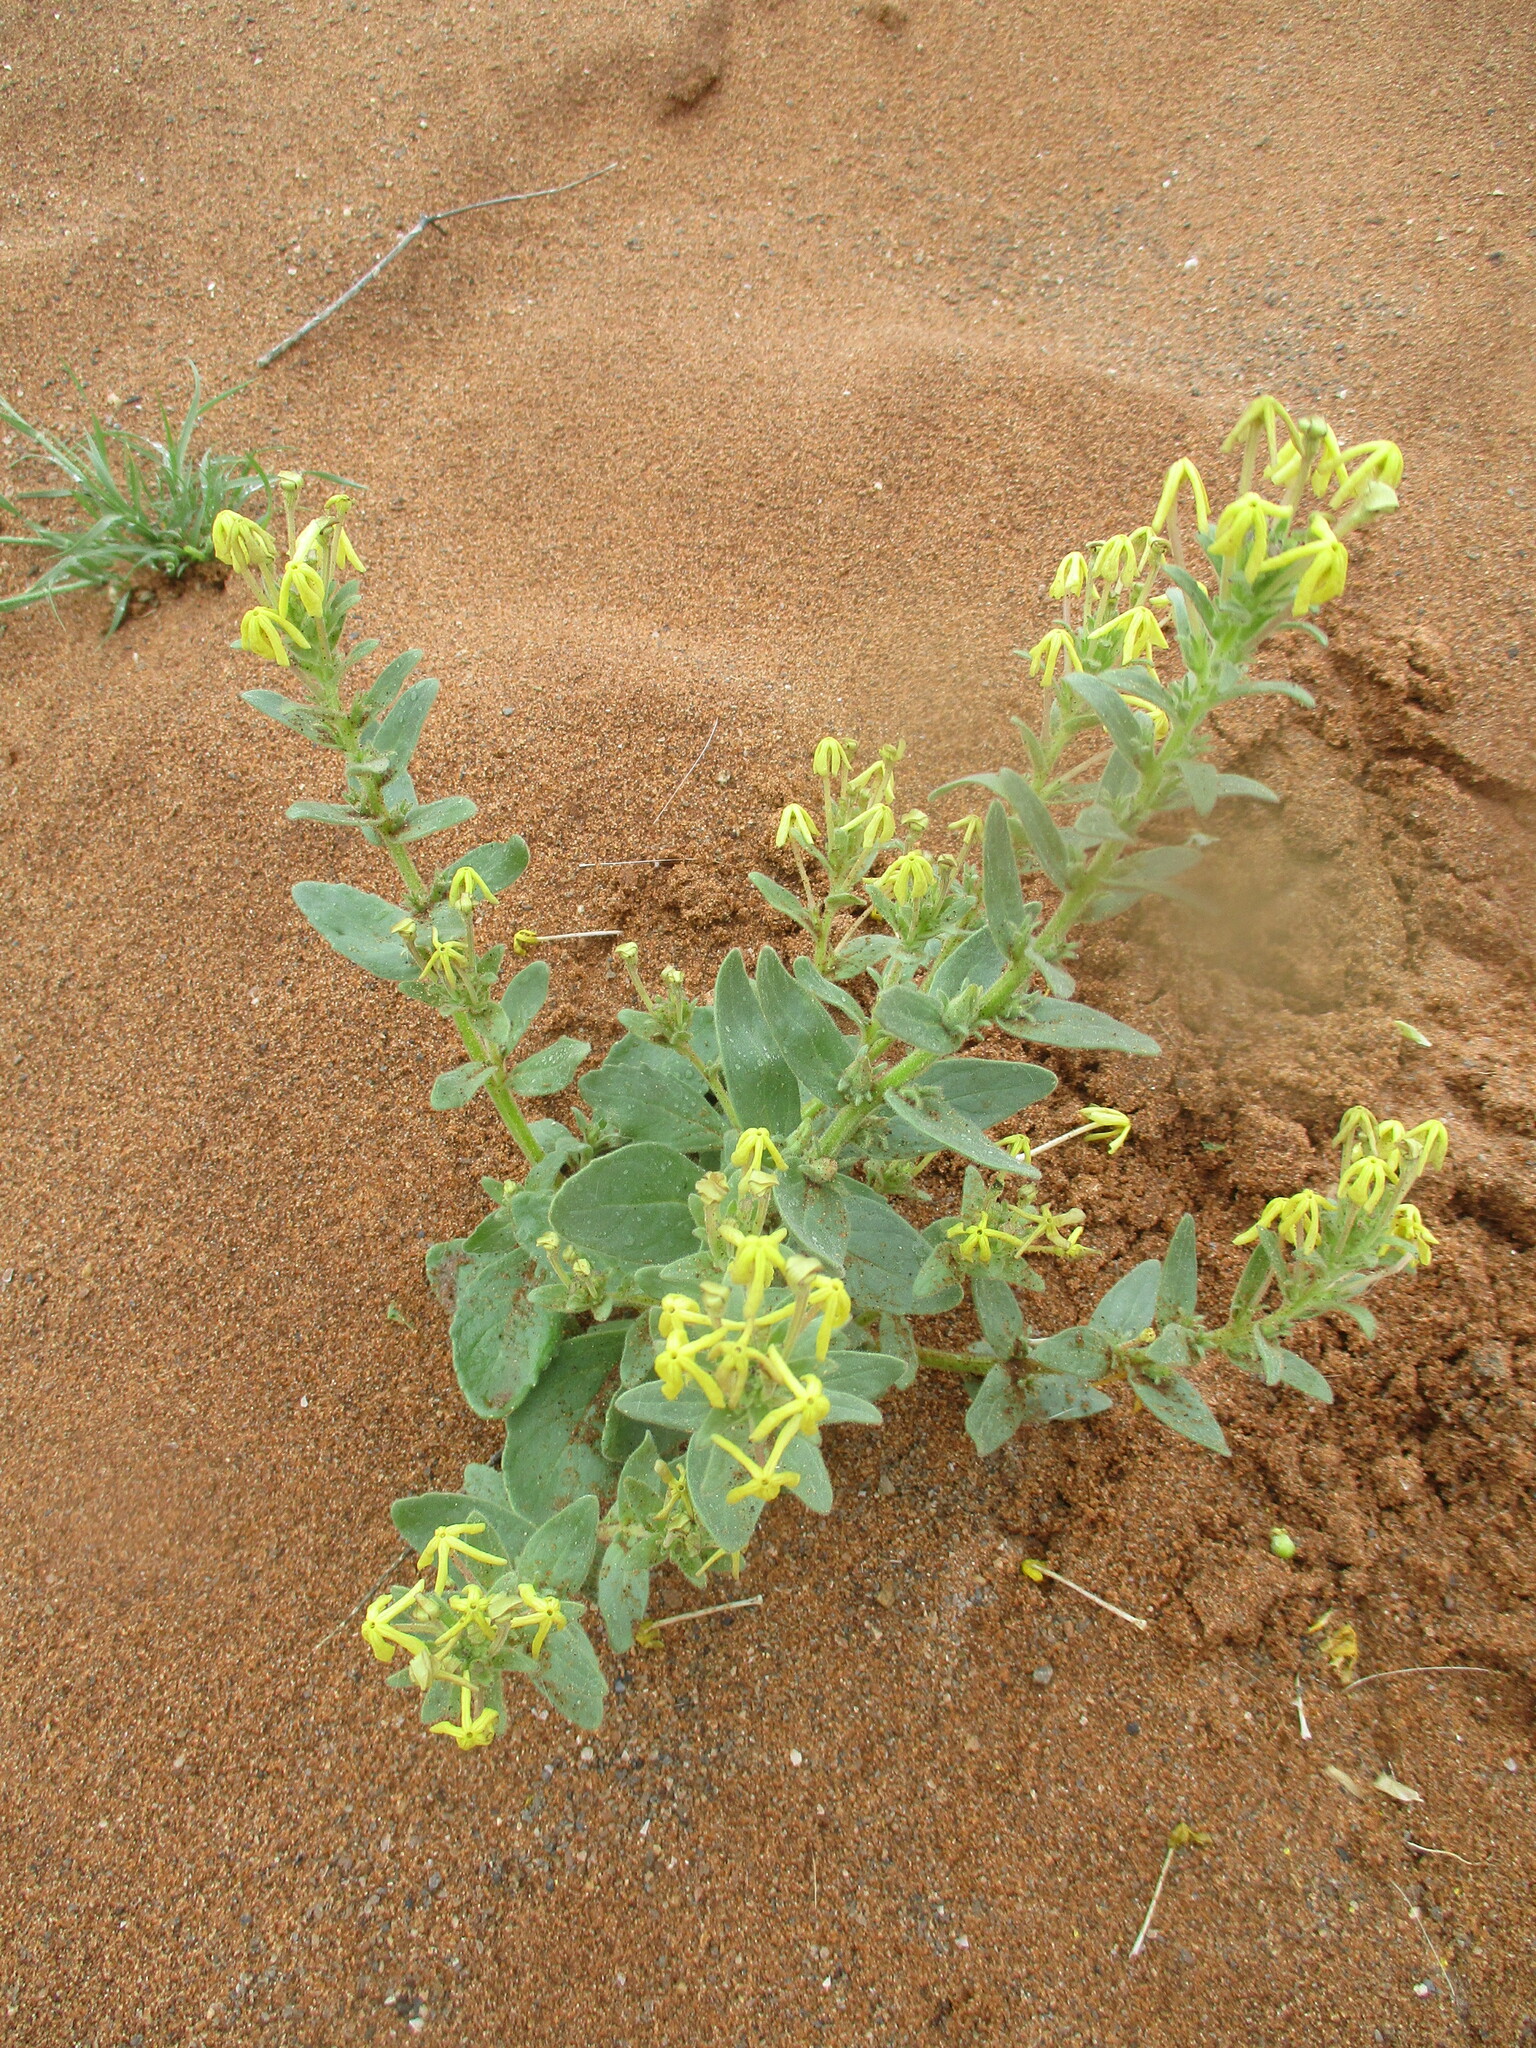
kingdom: Plantae
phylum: Tracheophyta
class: Magnoliopsida
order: Lamiales
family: Scrophulariaceae
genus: Lyperia
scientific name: Lyperia tristis
